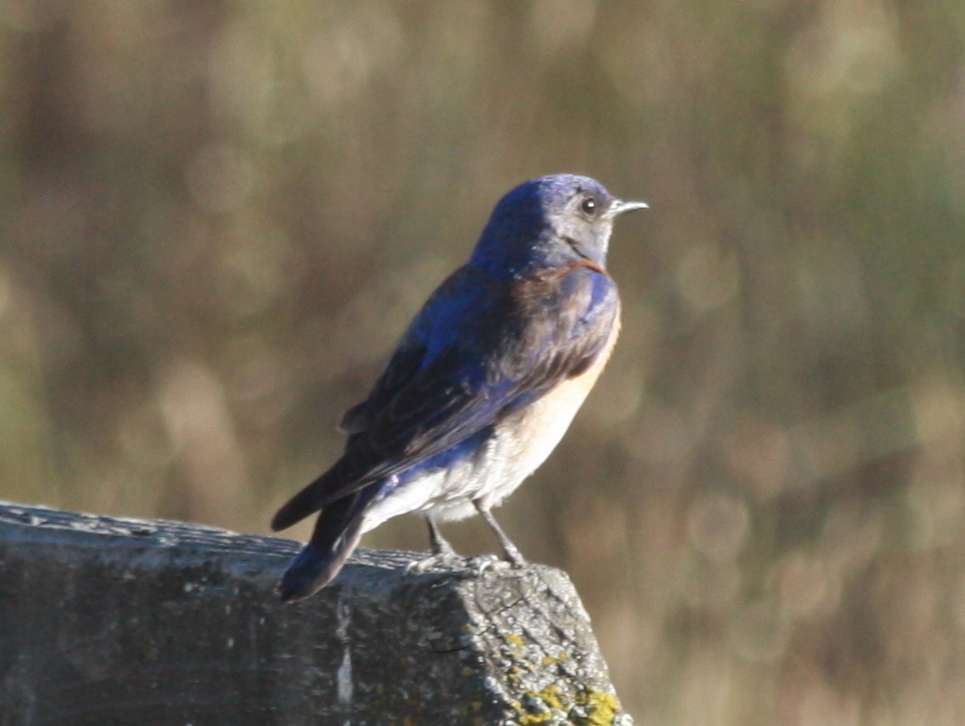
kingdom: Animalia
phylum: Chordata
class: Aves
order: Passeriformes
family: Turdidae
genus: Sialia
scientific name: Sialia mexicana
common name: Western bluebird
